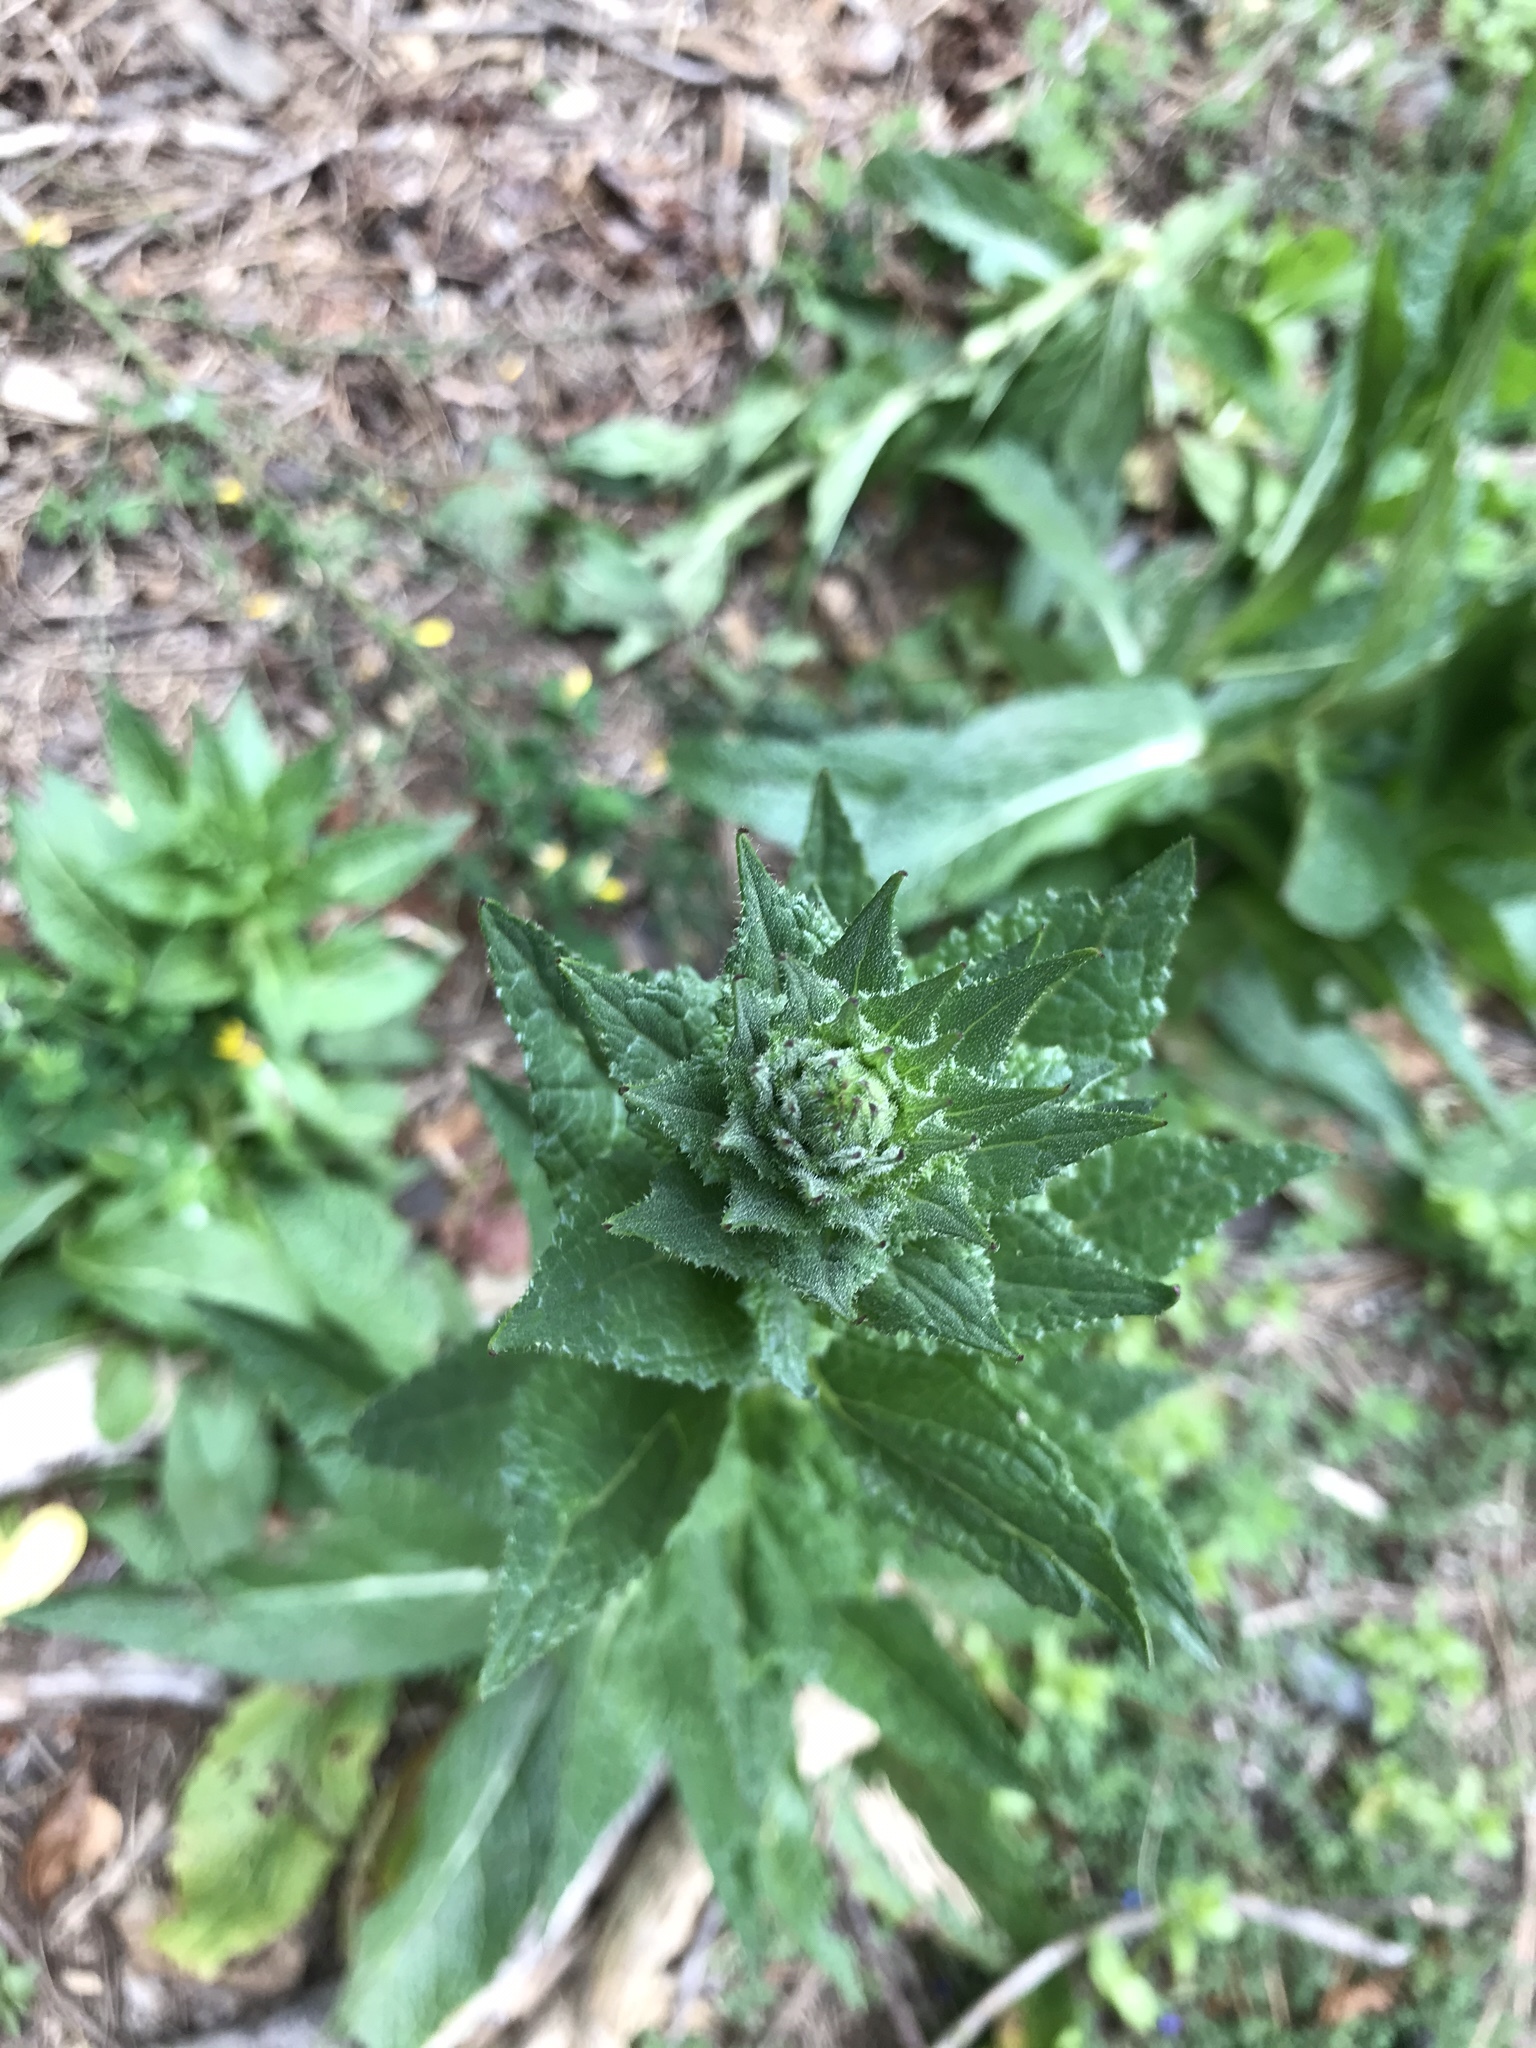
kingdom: Plantae
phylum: Tracheophyta
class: Magnoliopsida
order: Lamiales
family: Scrophulariaceae
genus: Verbascum
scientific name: Verbascum virgatum
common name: Twiggy mullein
